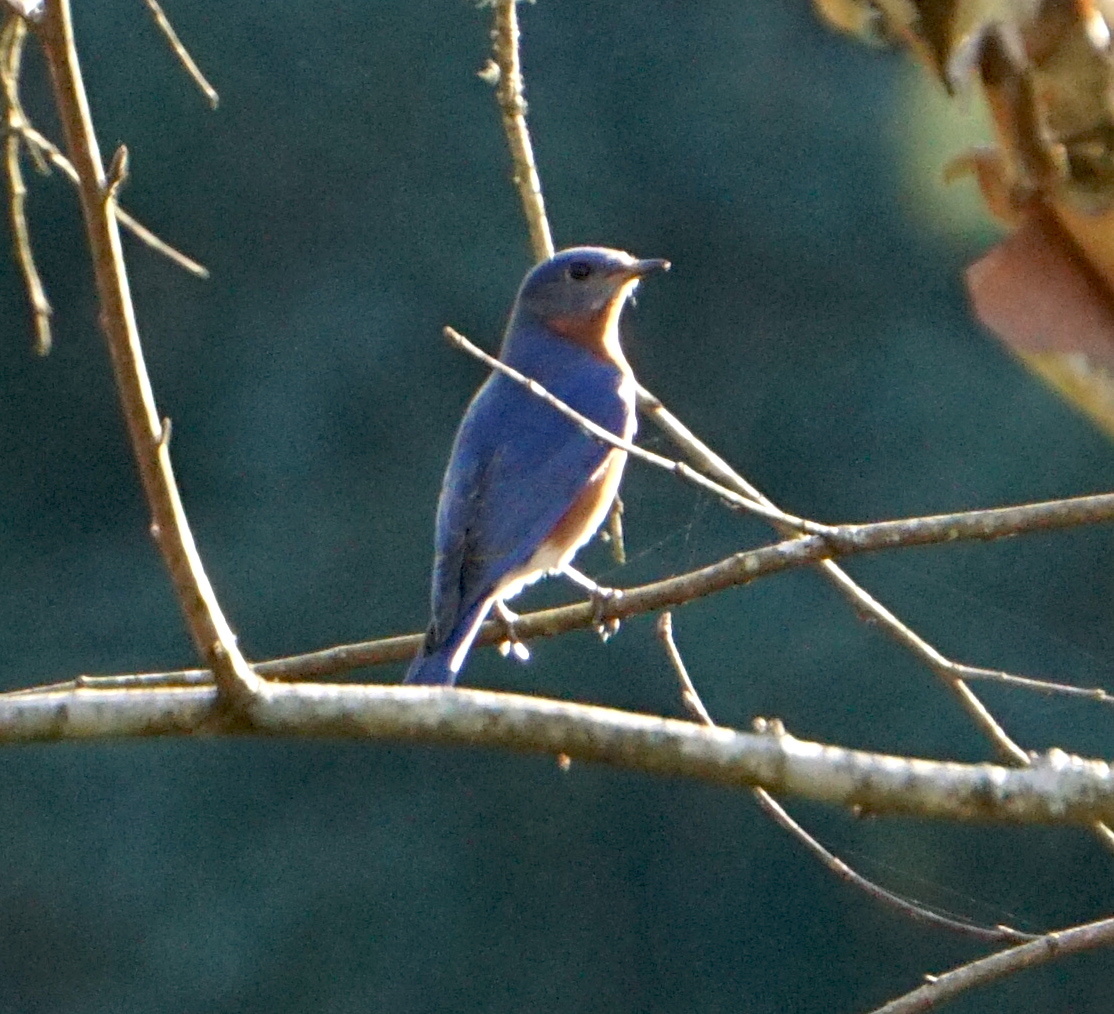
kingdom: Animalia
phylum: Chordata
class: Aves
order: Passeriformes
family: Turdidae
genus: Sialia
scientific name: Sialia sialis
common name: Eastern bluebird
